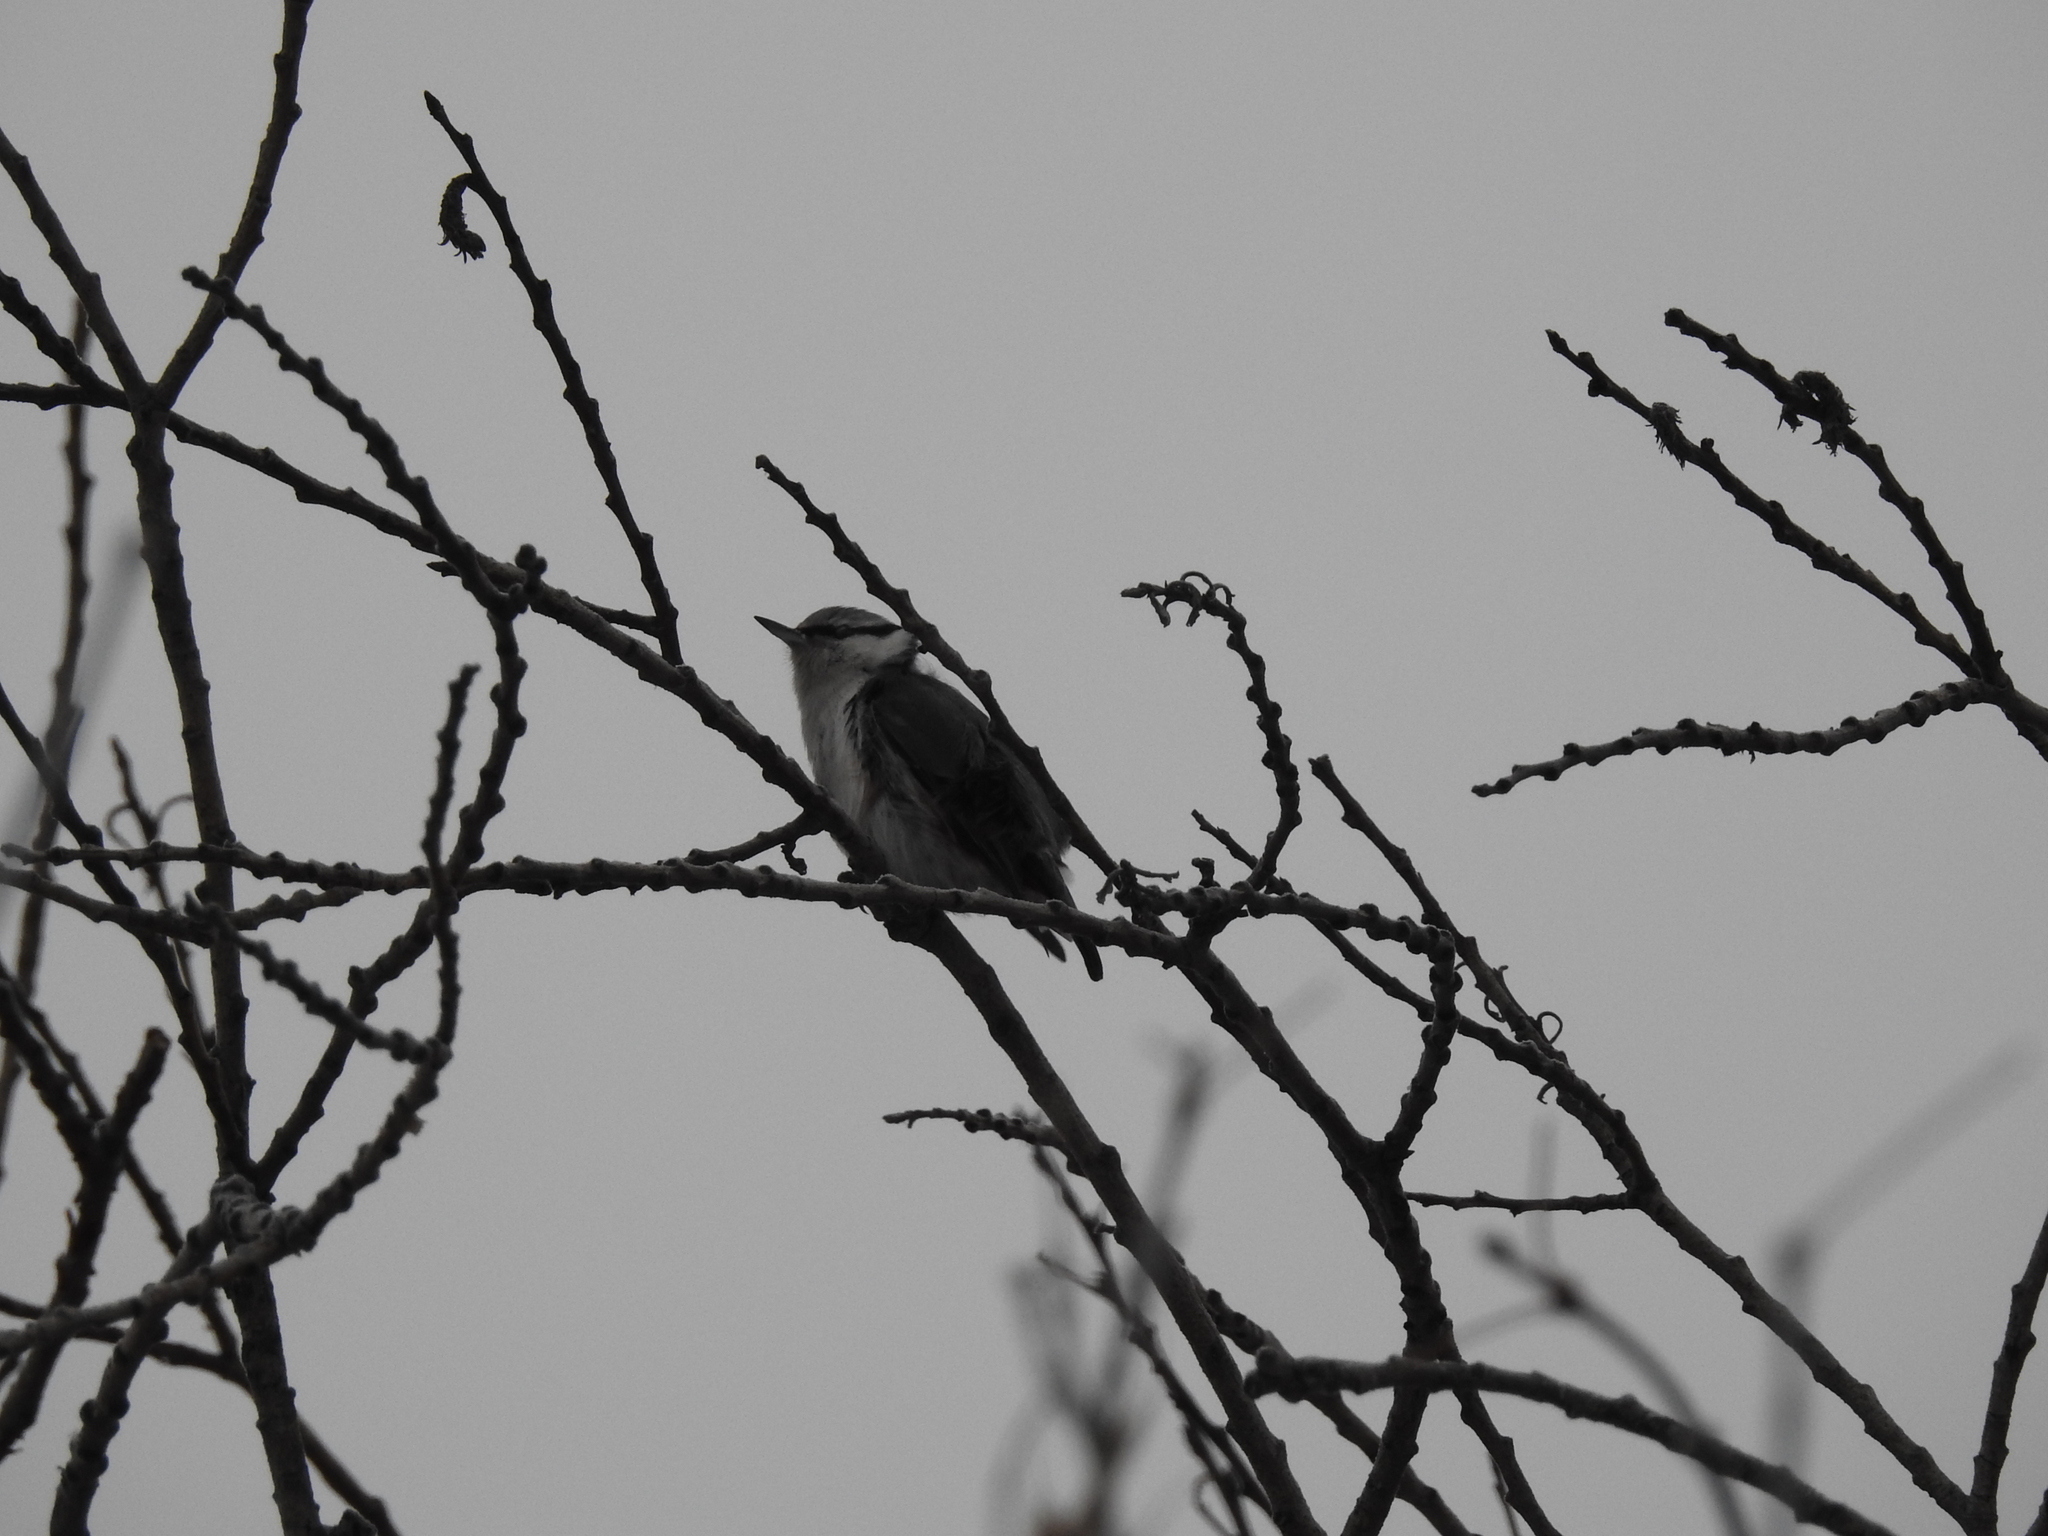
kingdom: Animalia
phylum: Chordata
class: Aves
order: Passeriformes
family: Sittidae
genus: Sitta
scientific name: Sitta europaea
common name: Eurasian nuthatch
